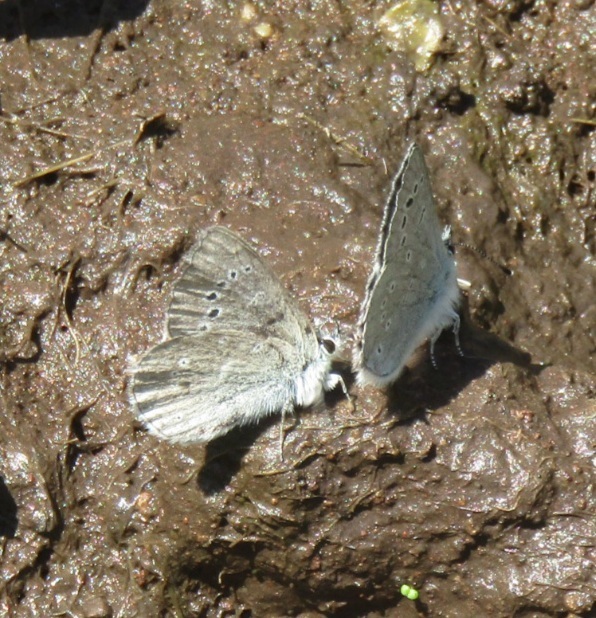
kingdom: Animalia
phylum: Arthropoda
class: Insecta
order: Lepidoptera
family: Lycaenidae
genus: Glaucopsyche
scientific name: Glaucopsyche lygdamus
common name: Silvery blue
